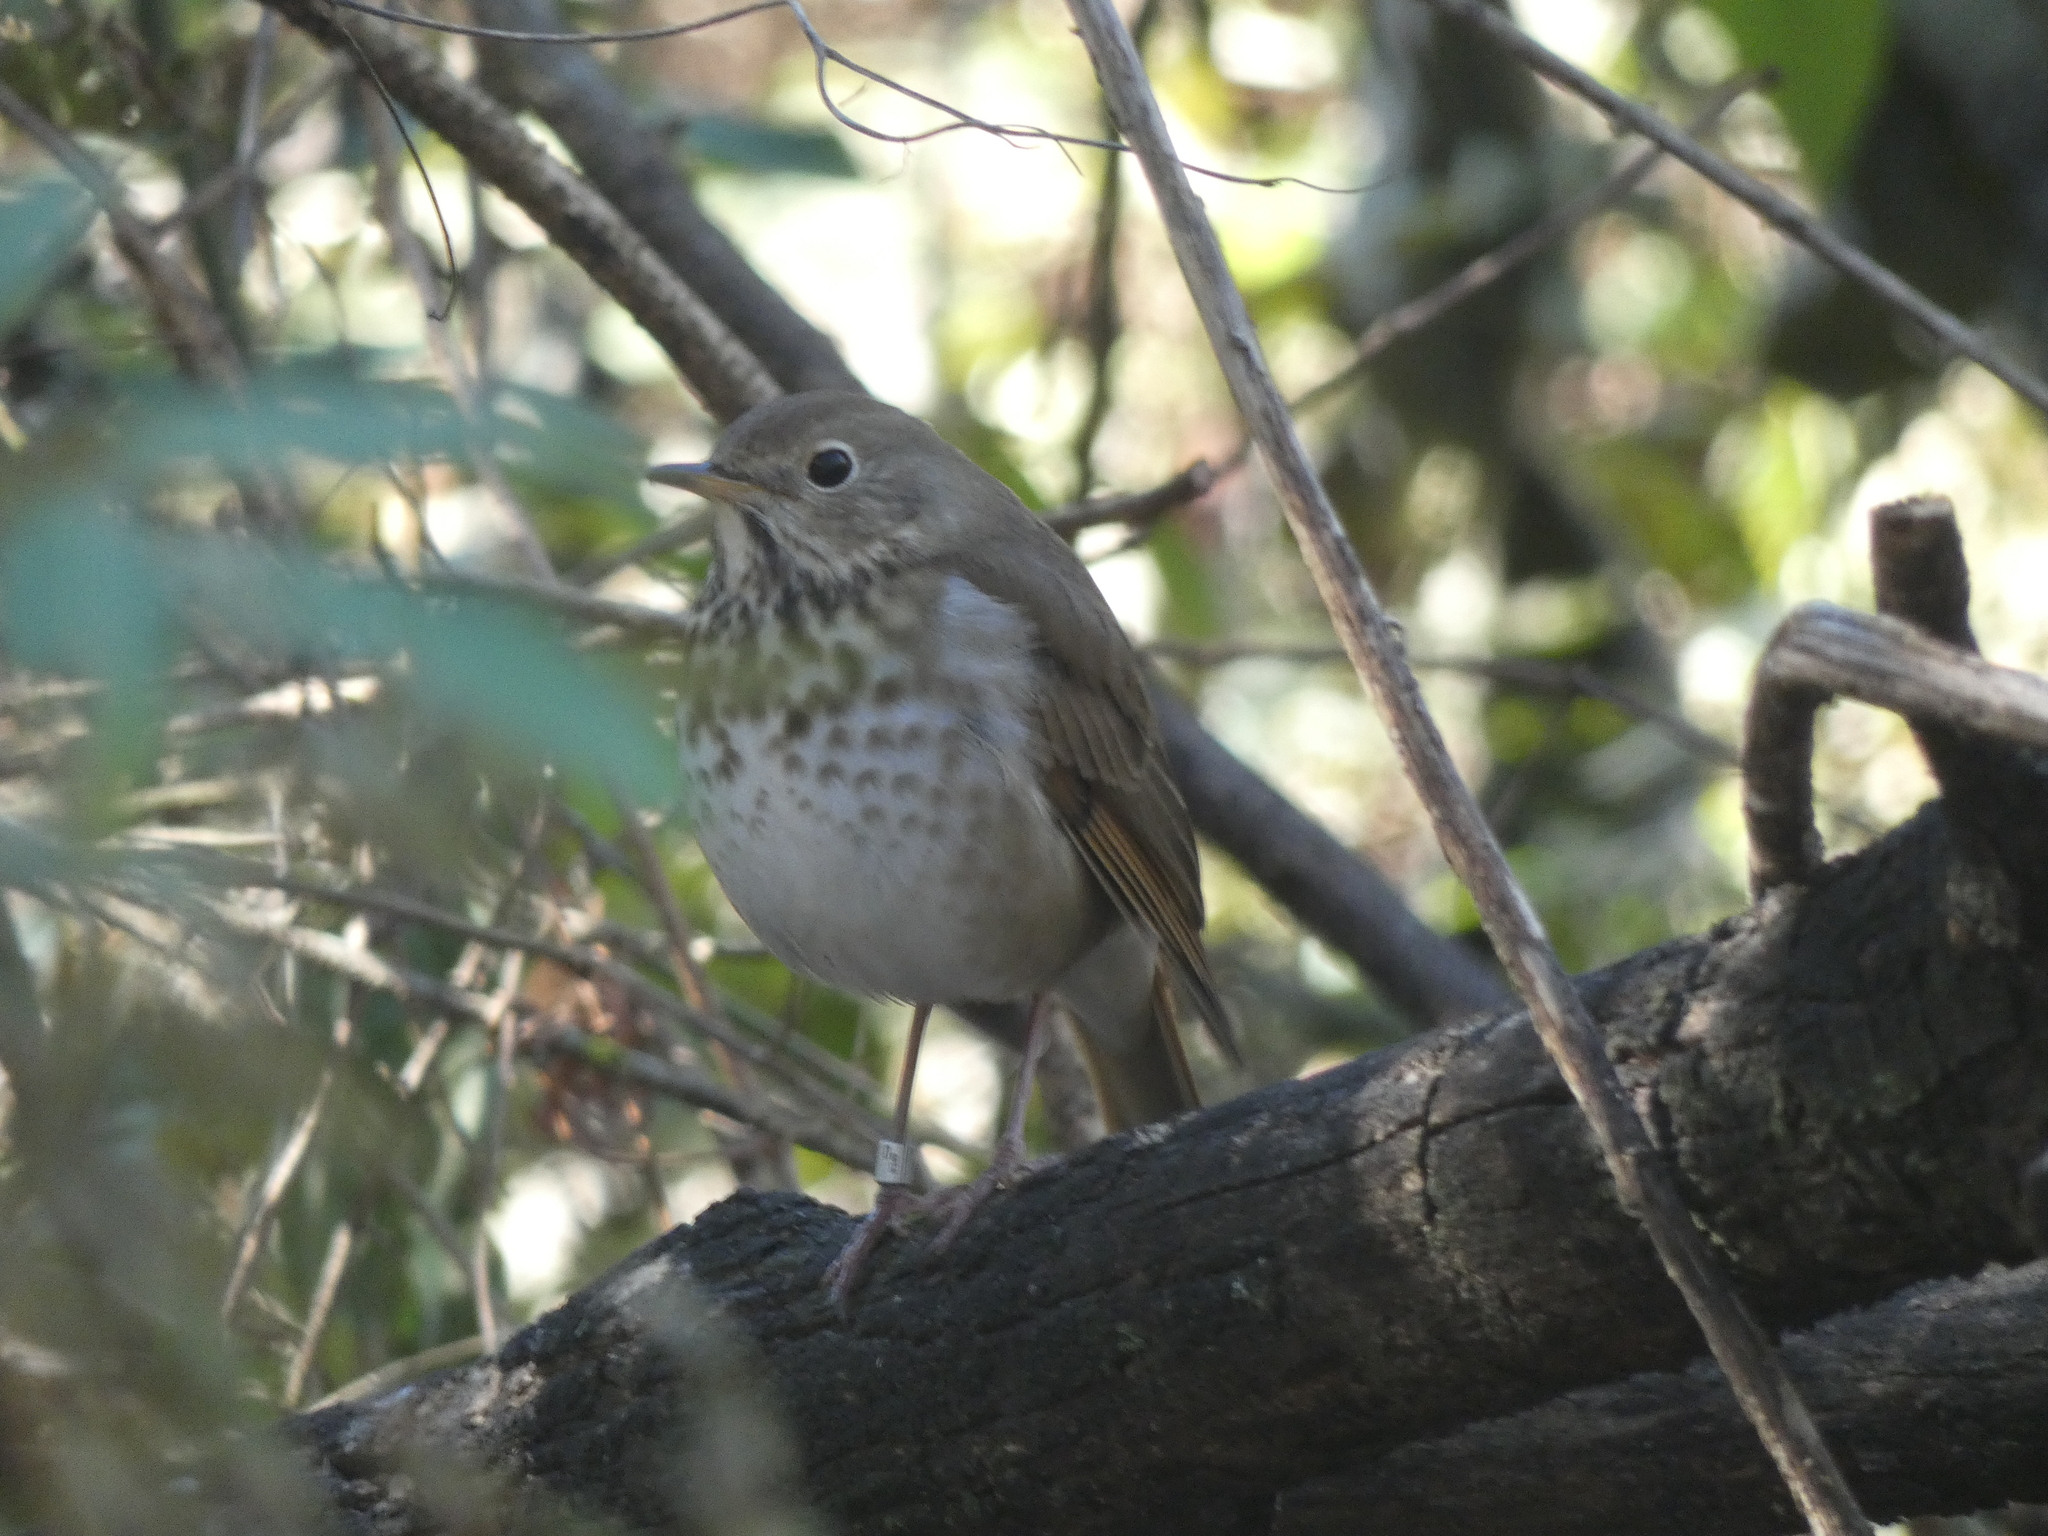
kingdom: Animalia
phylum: Chordata
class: Aves
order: Passeriformes
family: Turdidae
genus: Catharus
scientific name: Catharus guttatus
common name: Hermit thrush
